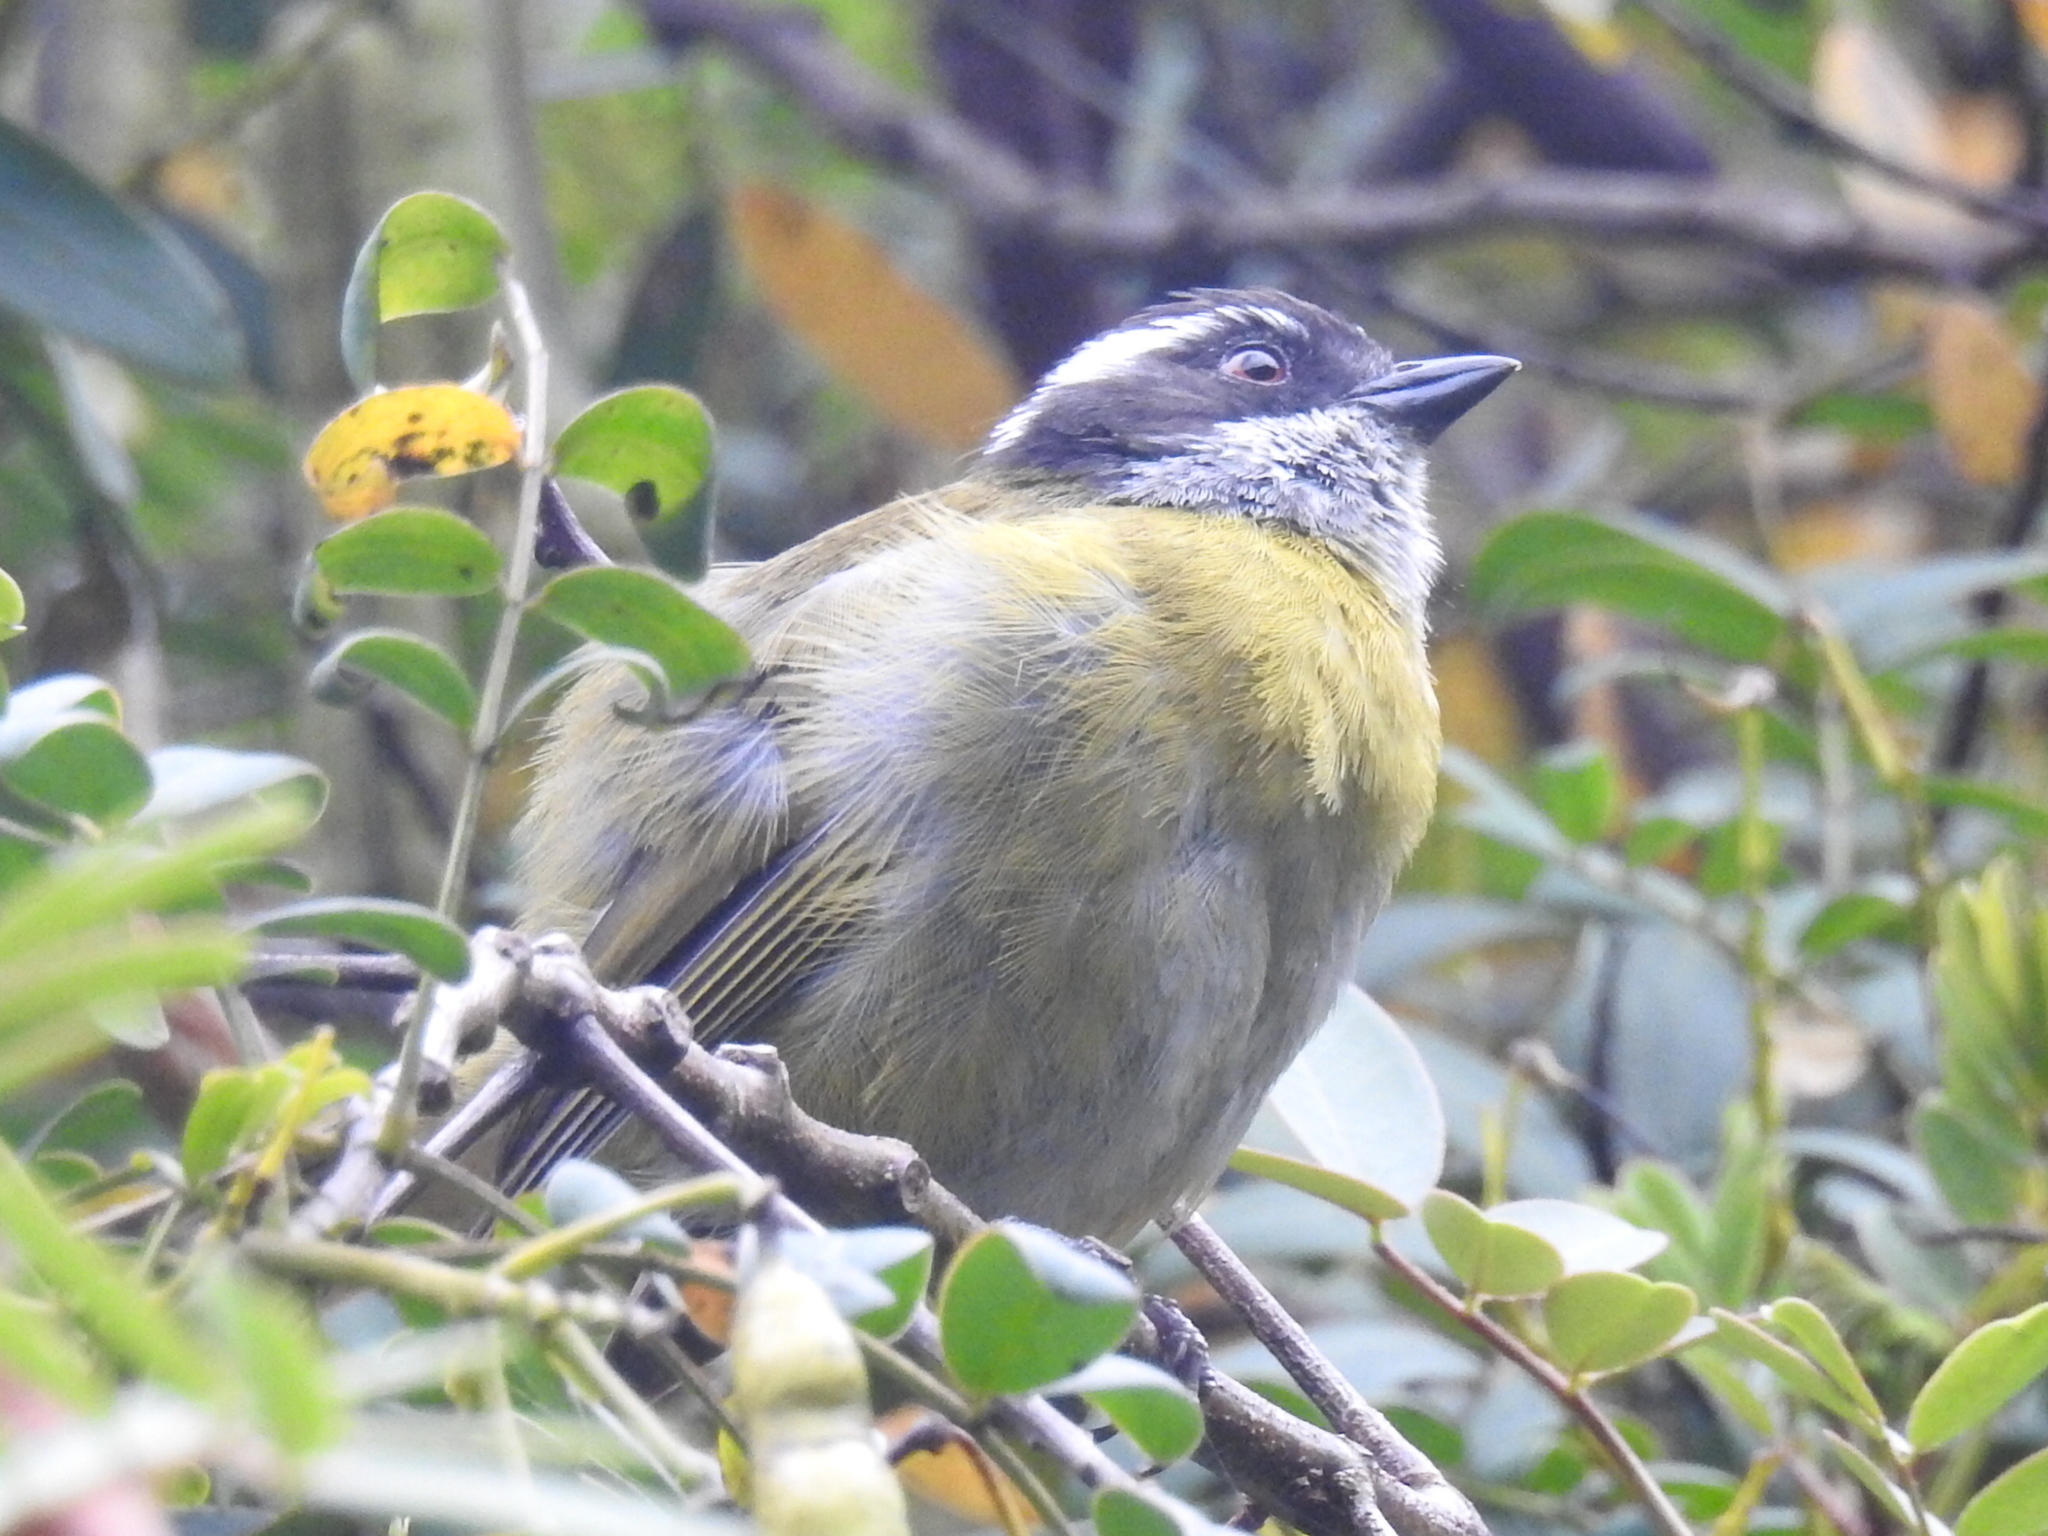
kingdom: Animalia
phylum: Chordata
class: Aves
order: Passeriformes
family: Passerellidae
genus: Chlorospingus
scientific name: Chlorospingus pileatus
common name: Sooty-capped bush-tanager
